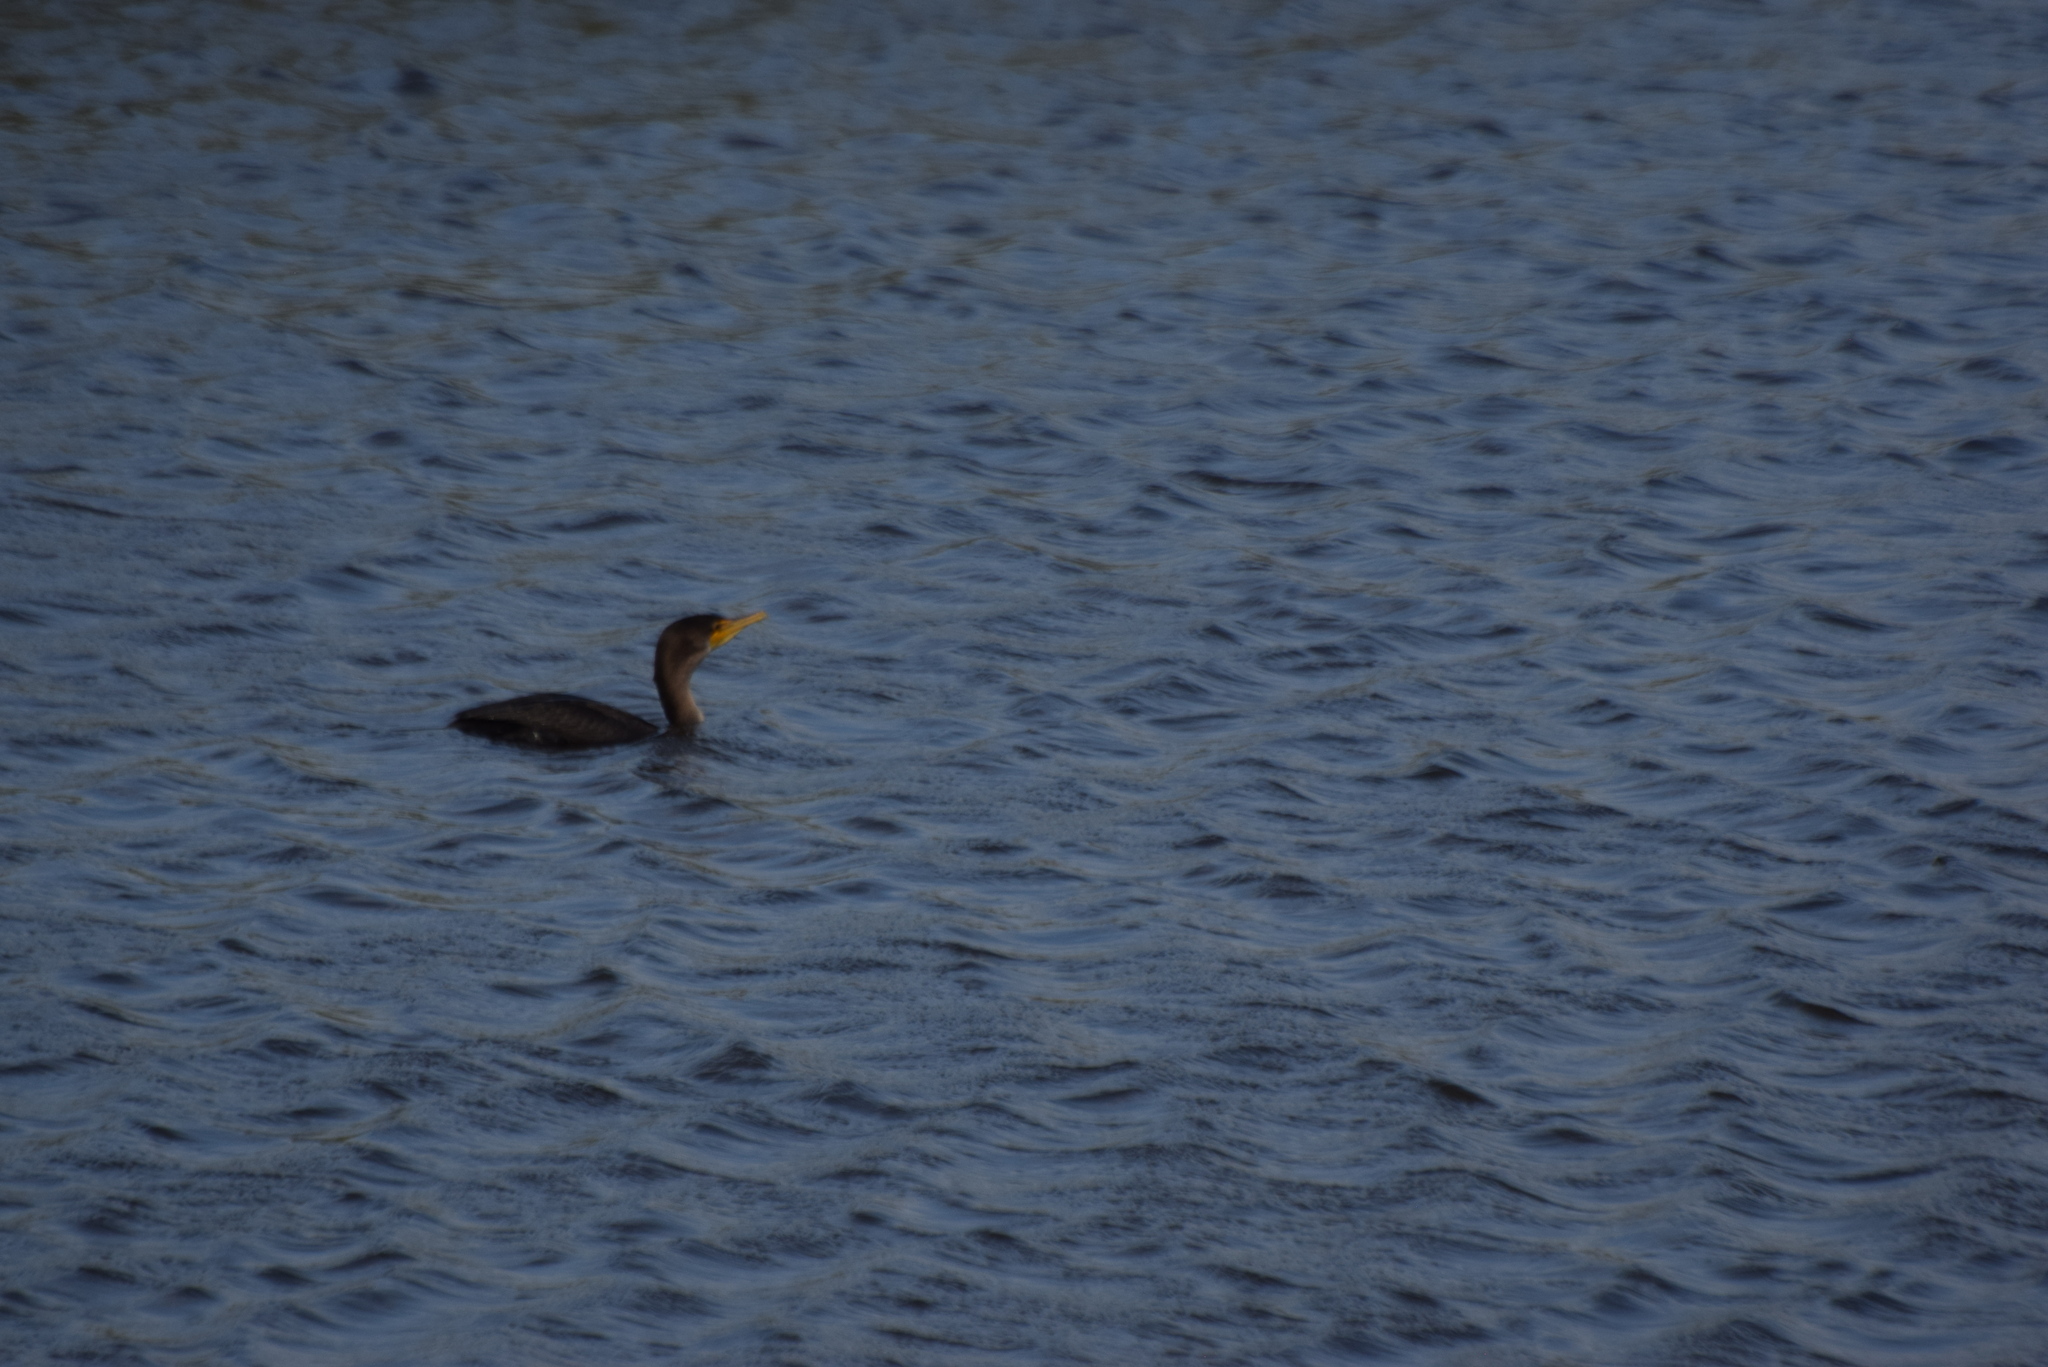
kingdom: Animalia
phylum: Chordata
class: Aves
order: Suliformes
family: Phalacrocoracidae
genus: Phalacrocorax
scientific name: Phalacrocorax auritus
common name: Double-crested cormorant
